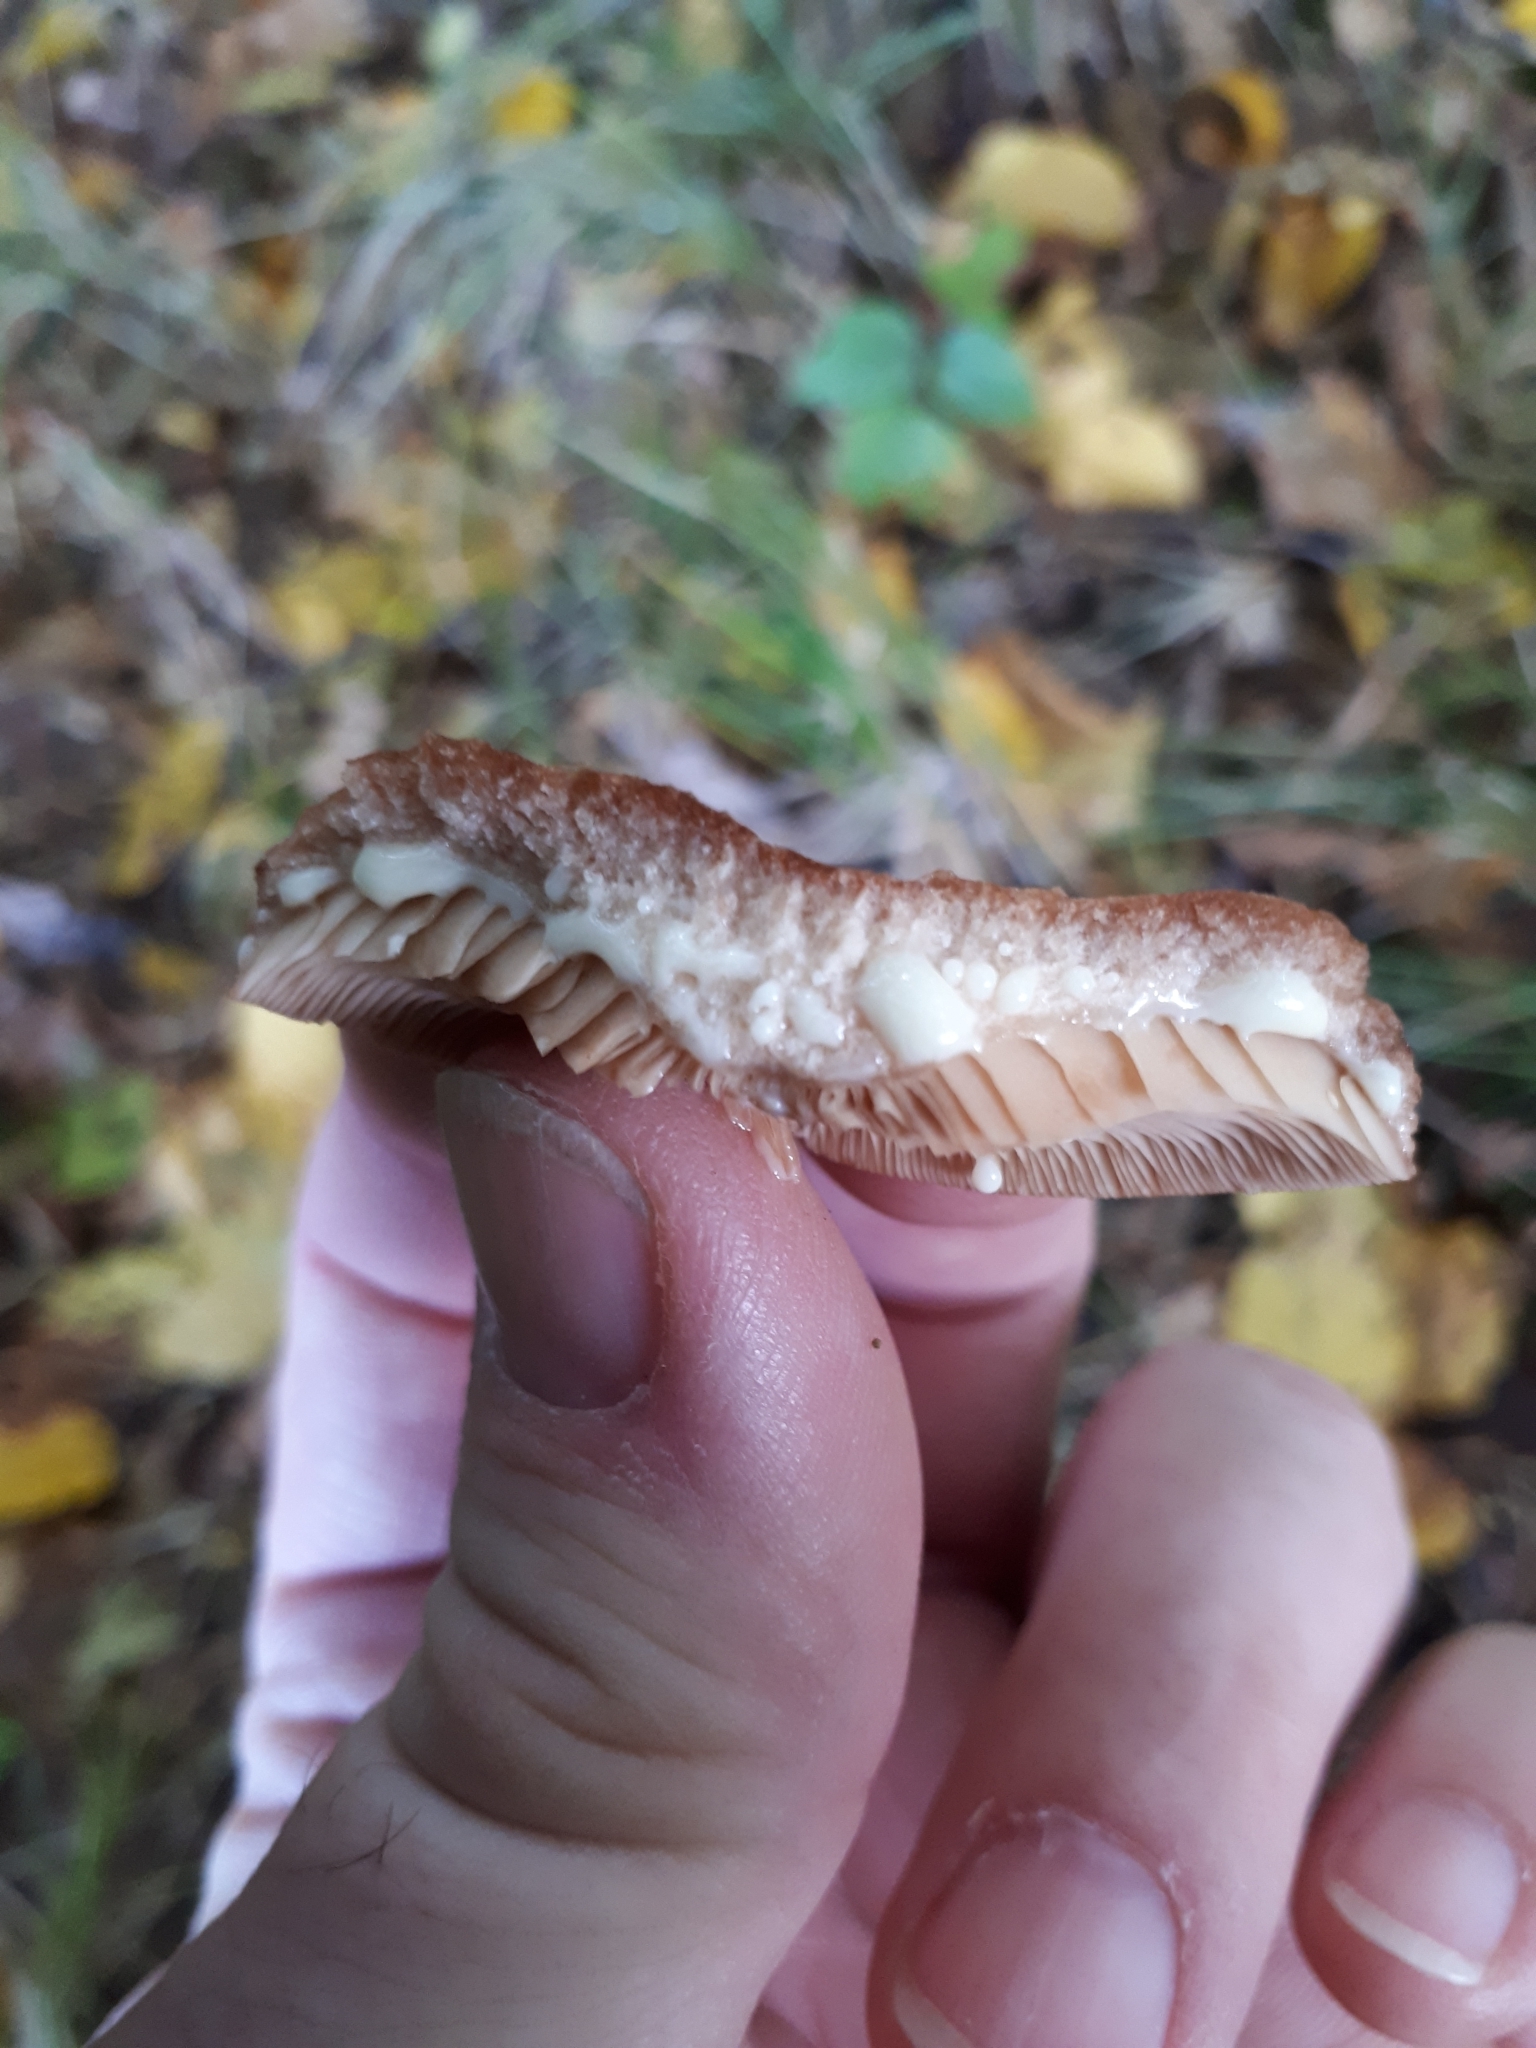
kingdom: Fungi
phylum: Basidiomycota
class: Agaricomycetes
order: Russulales
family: Russulaceae
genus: Lactarius
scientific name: Lactarius quietus
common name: Oak milk-cap
